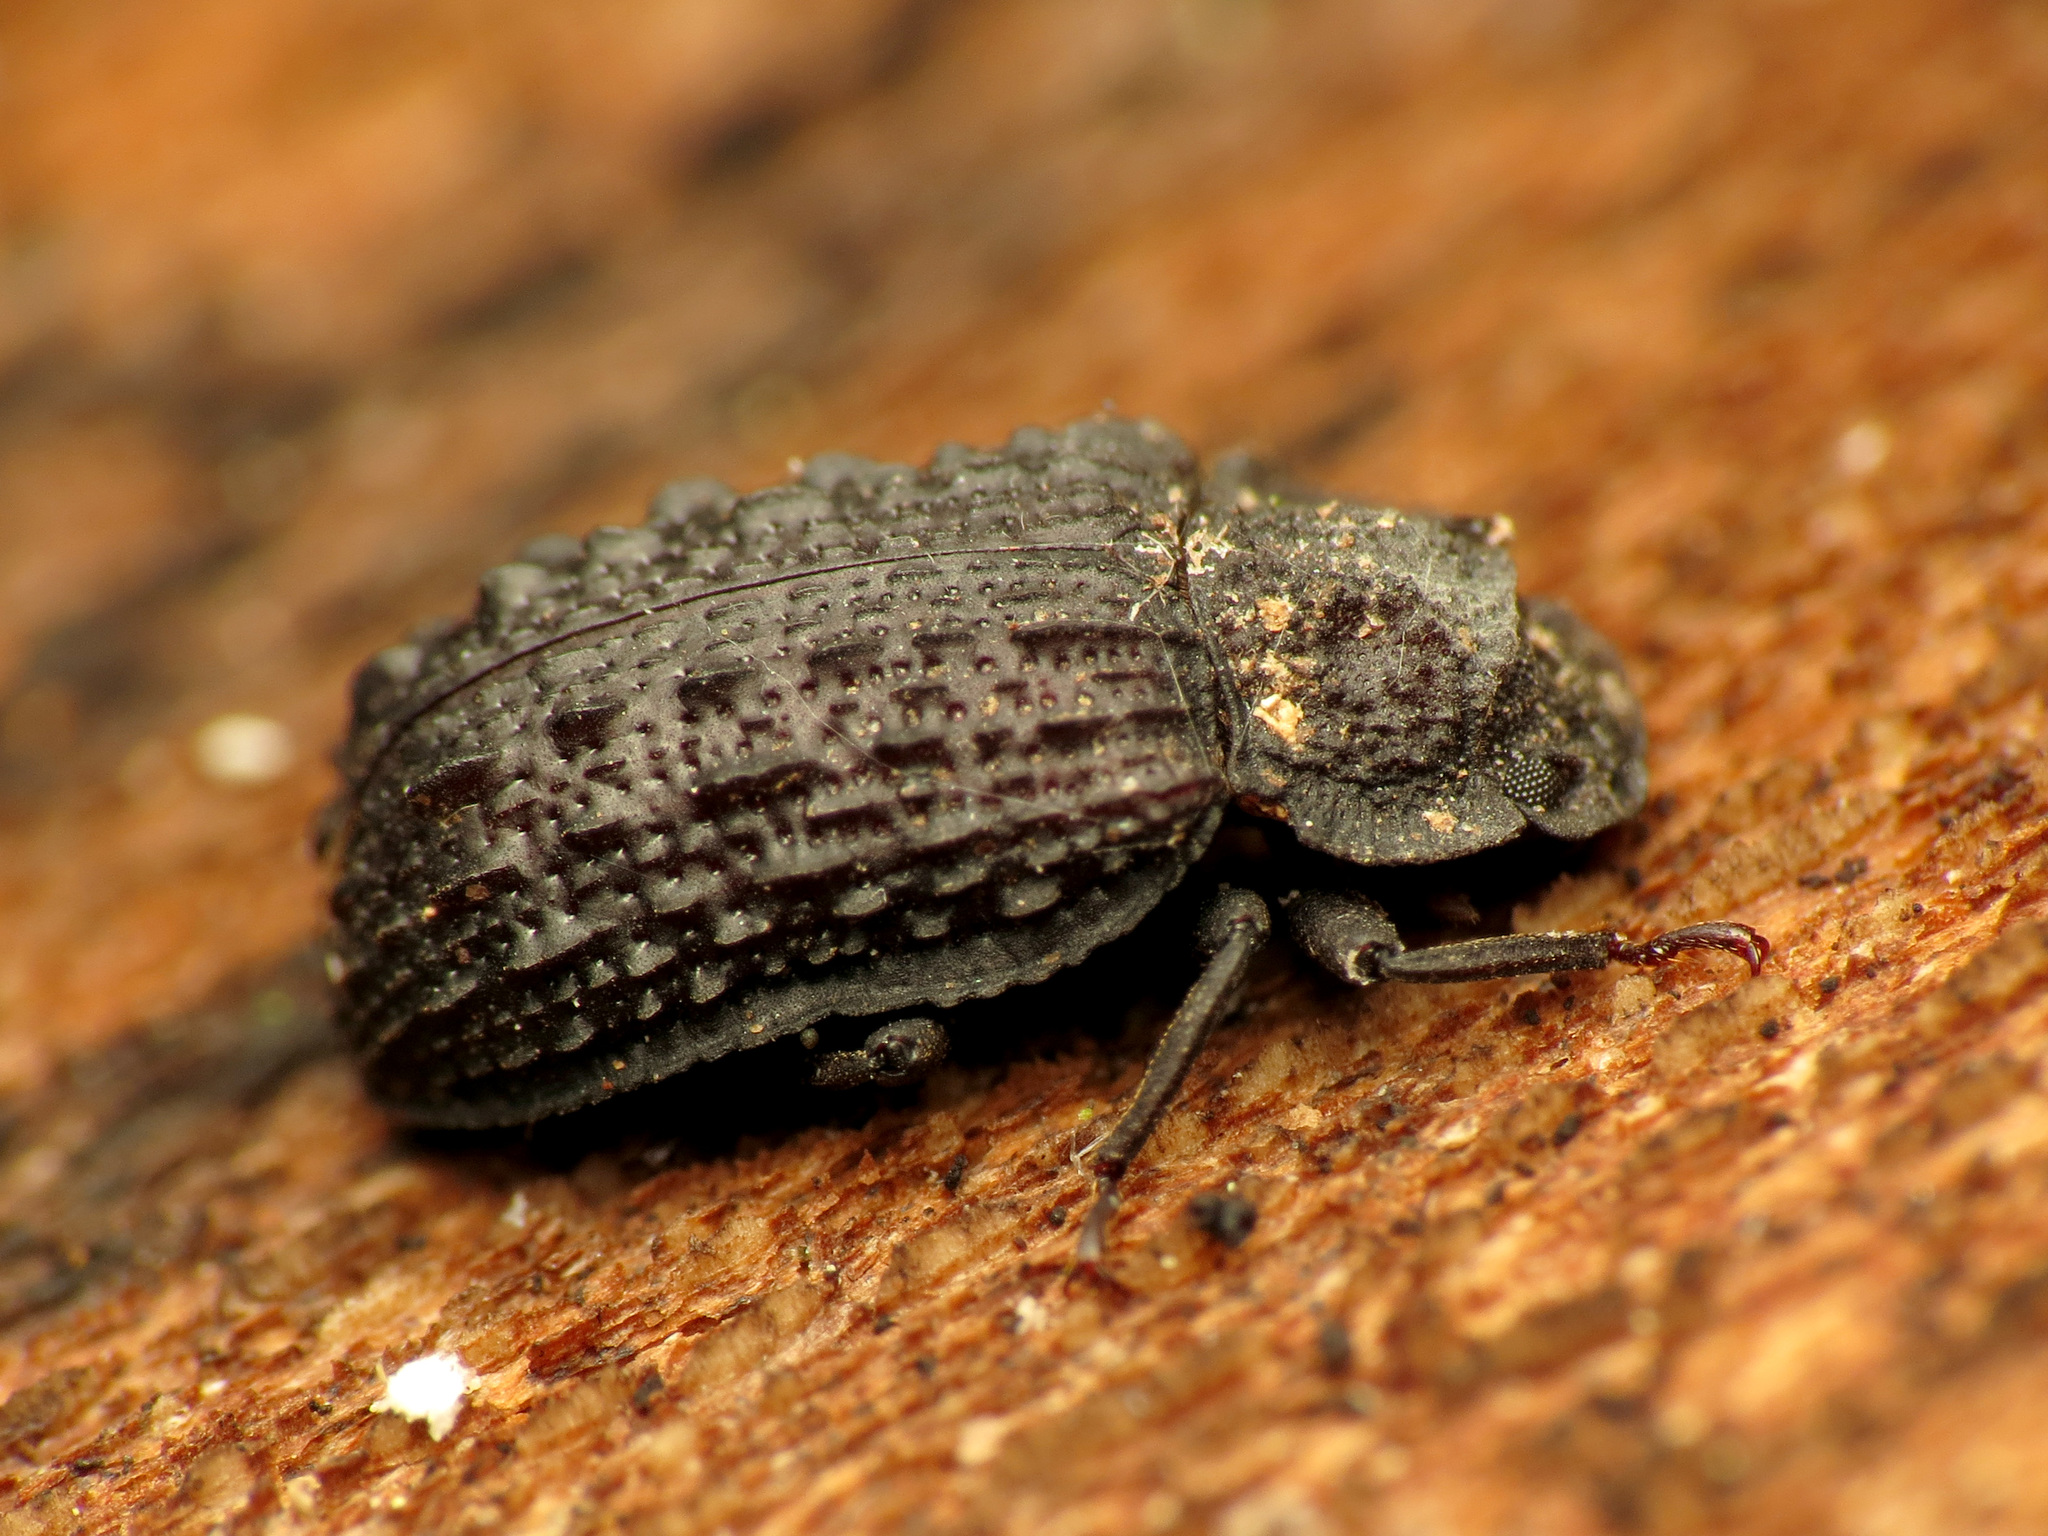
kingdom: Animalia
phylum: Arthropoda
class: Insecta
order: Coleoptera
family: Tenebrionidae
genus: Bolitophagus
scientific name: Bolitophagus corticola
